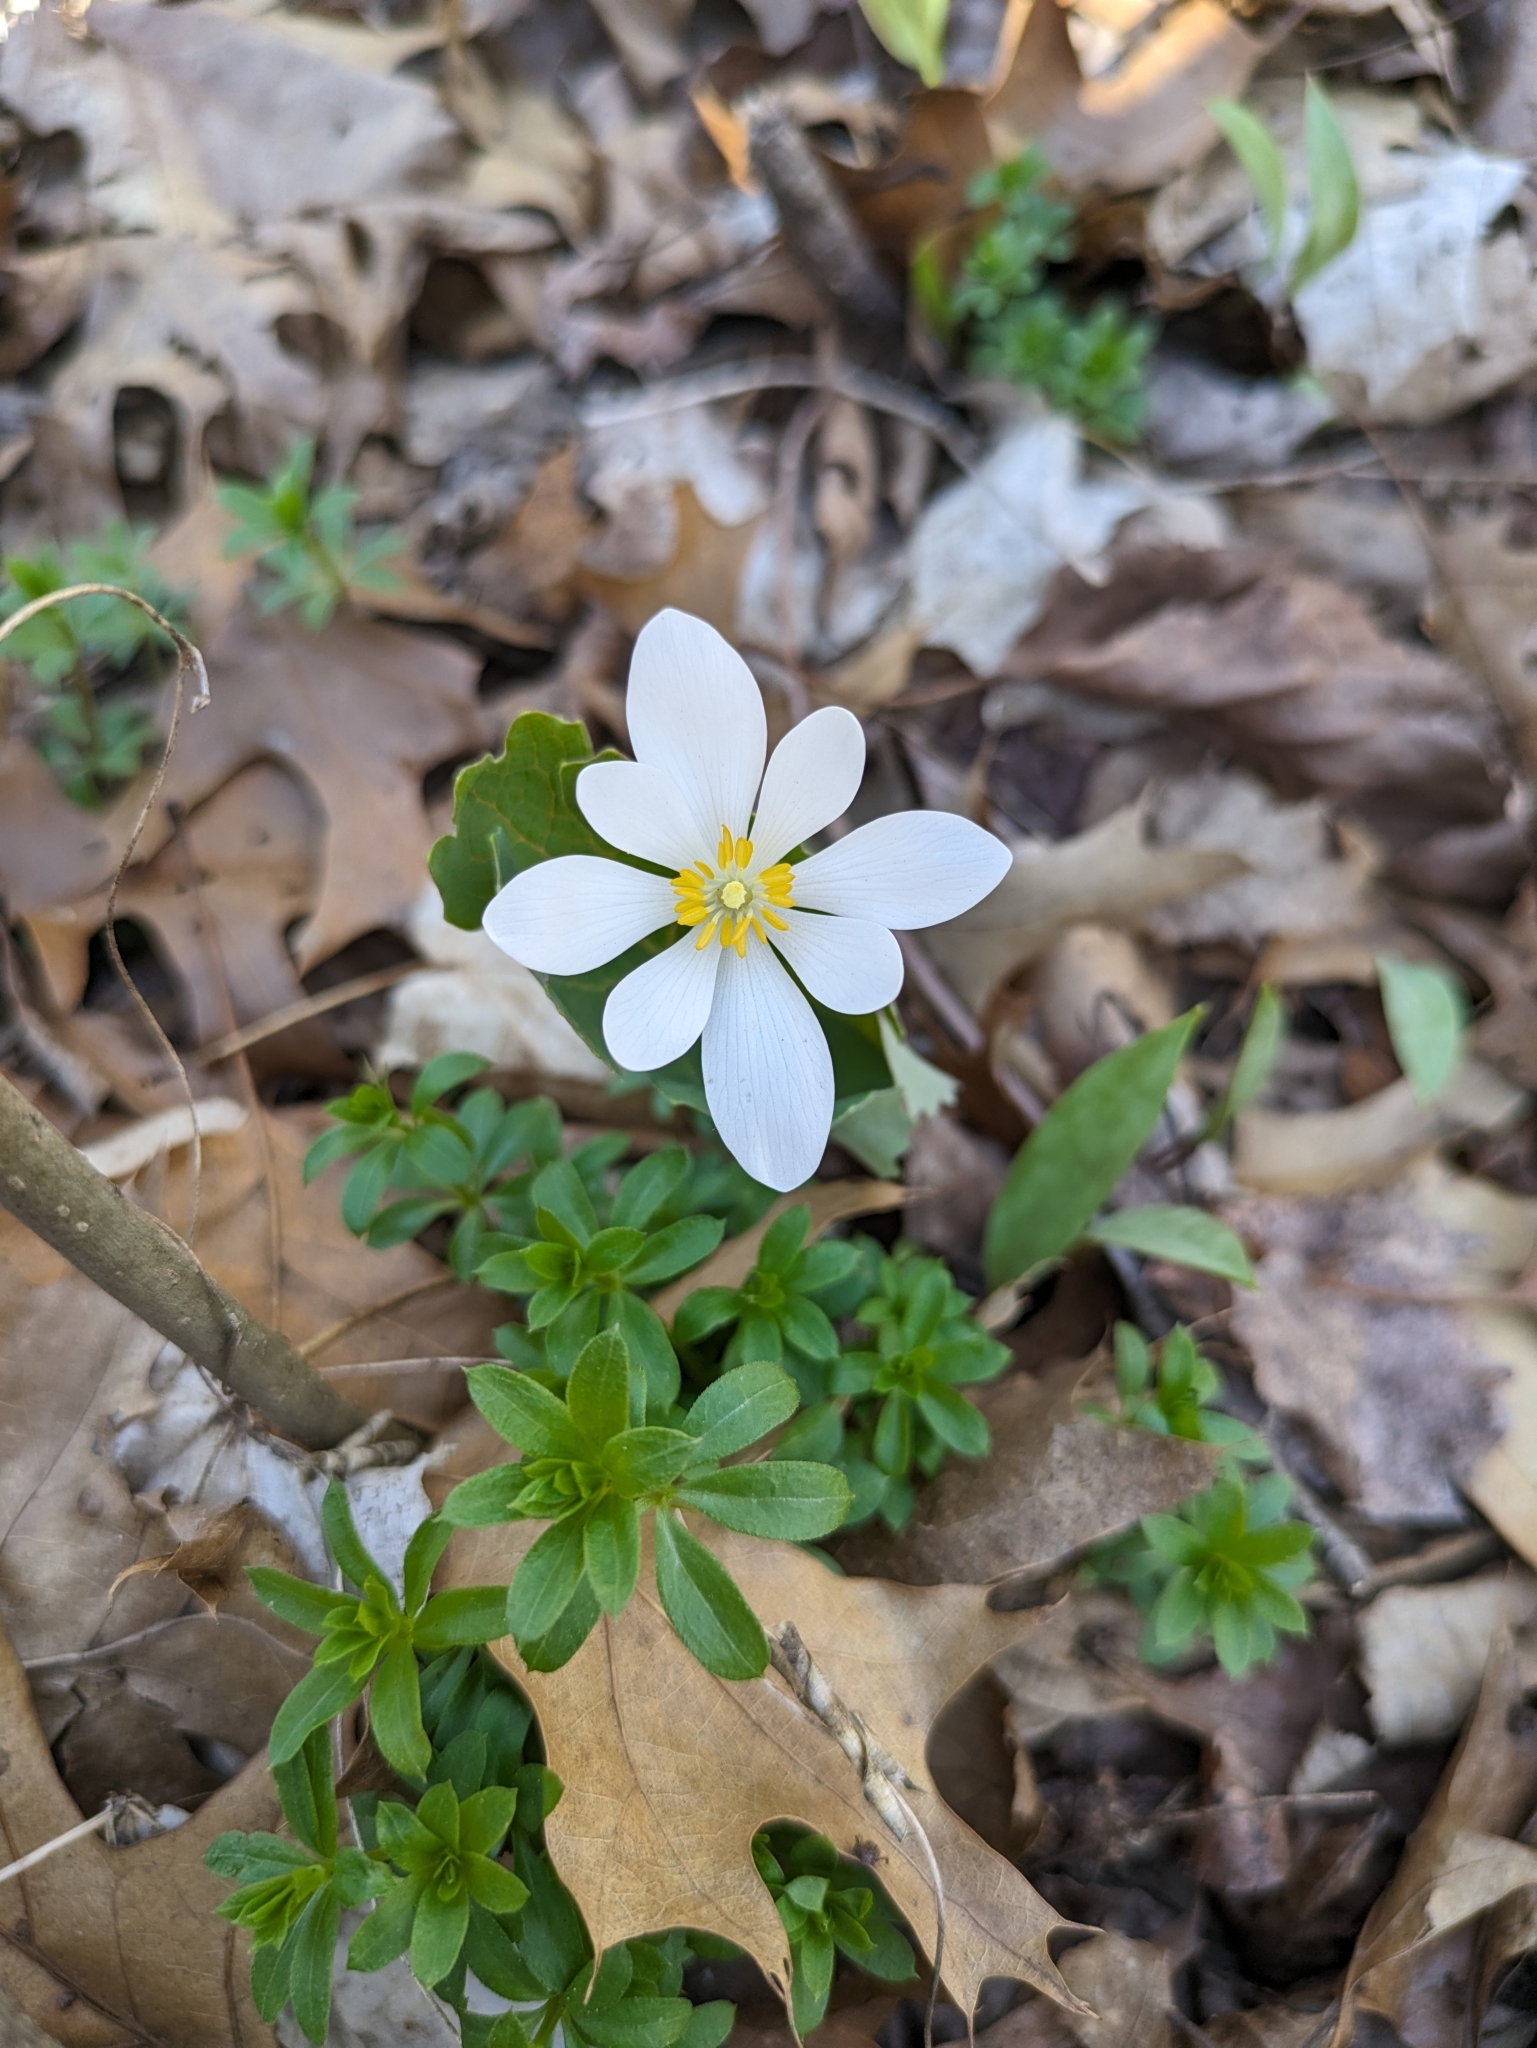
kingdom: Plantae
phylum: Tracheophyta
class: Magnoliopsida
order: Ranunculales
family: Papaveraceae
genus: Sanguinaria
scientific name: Sanguinaria canadensis
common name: Bloodroot
